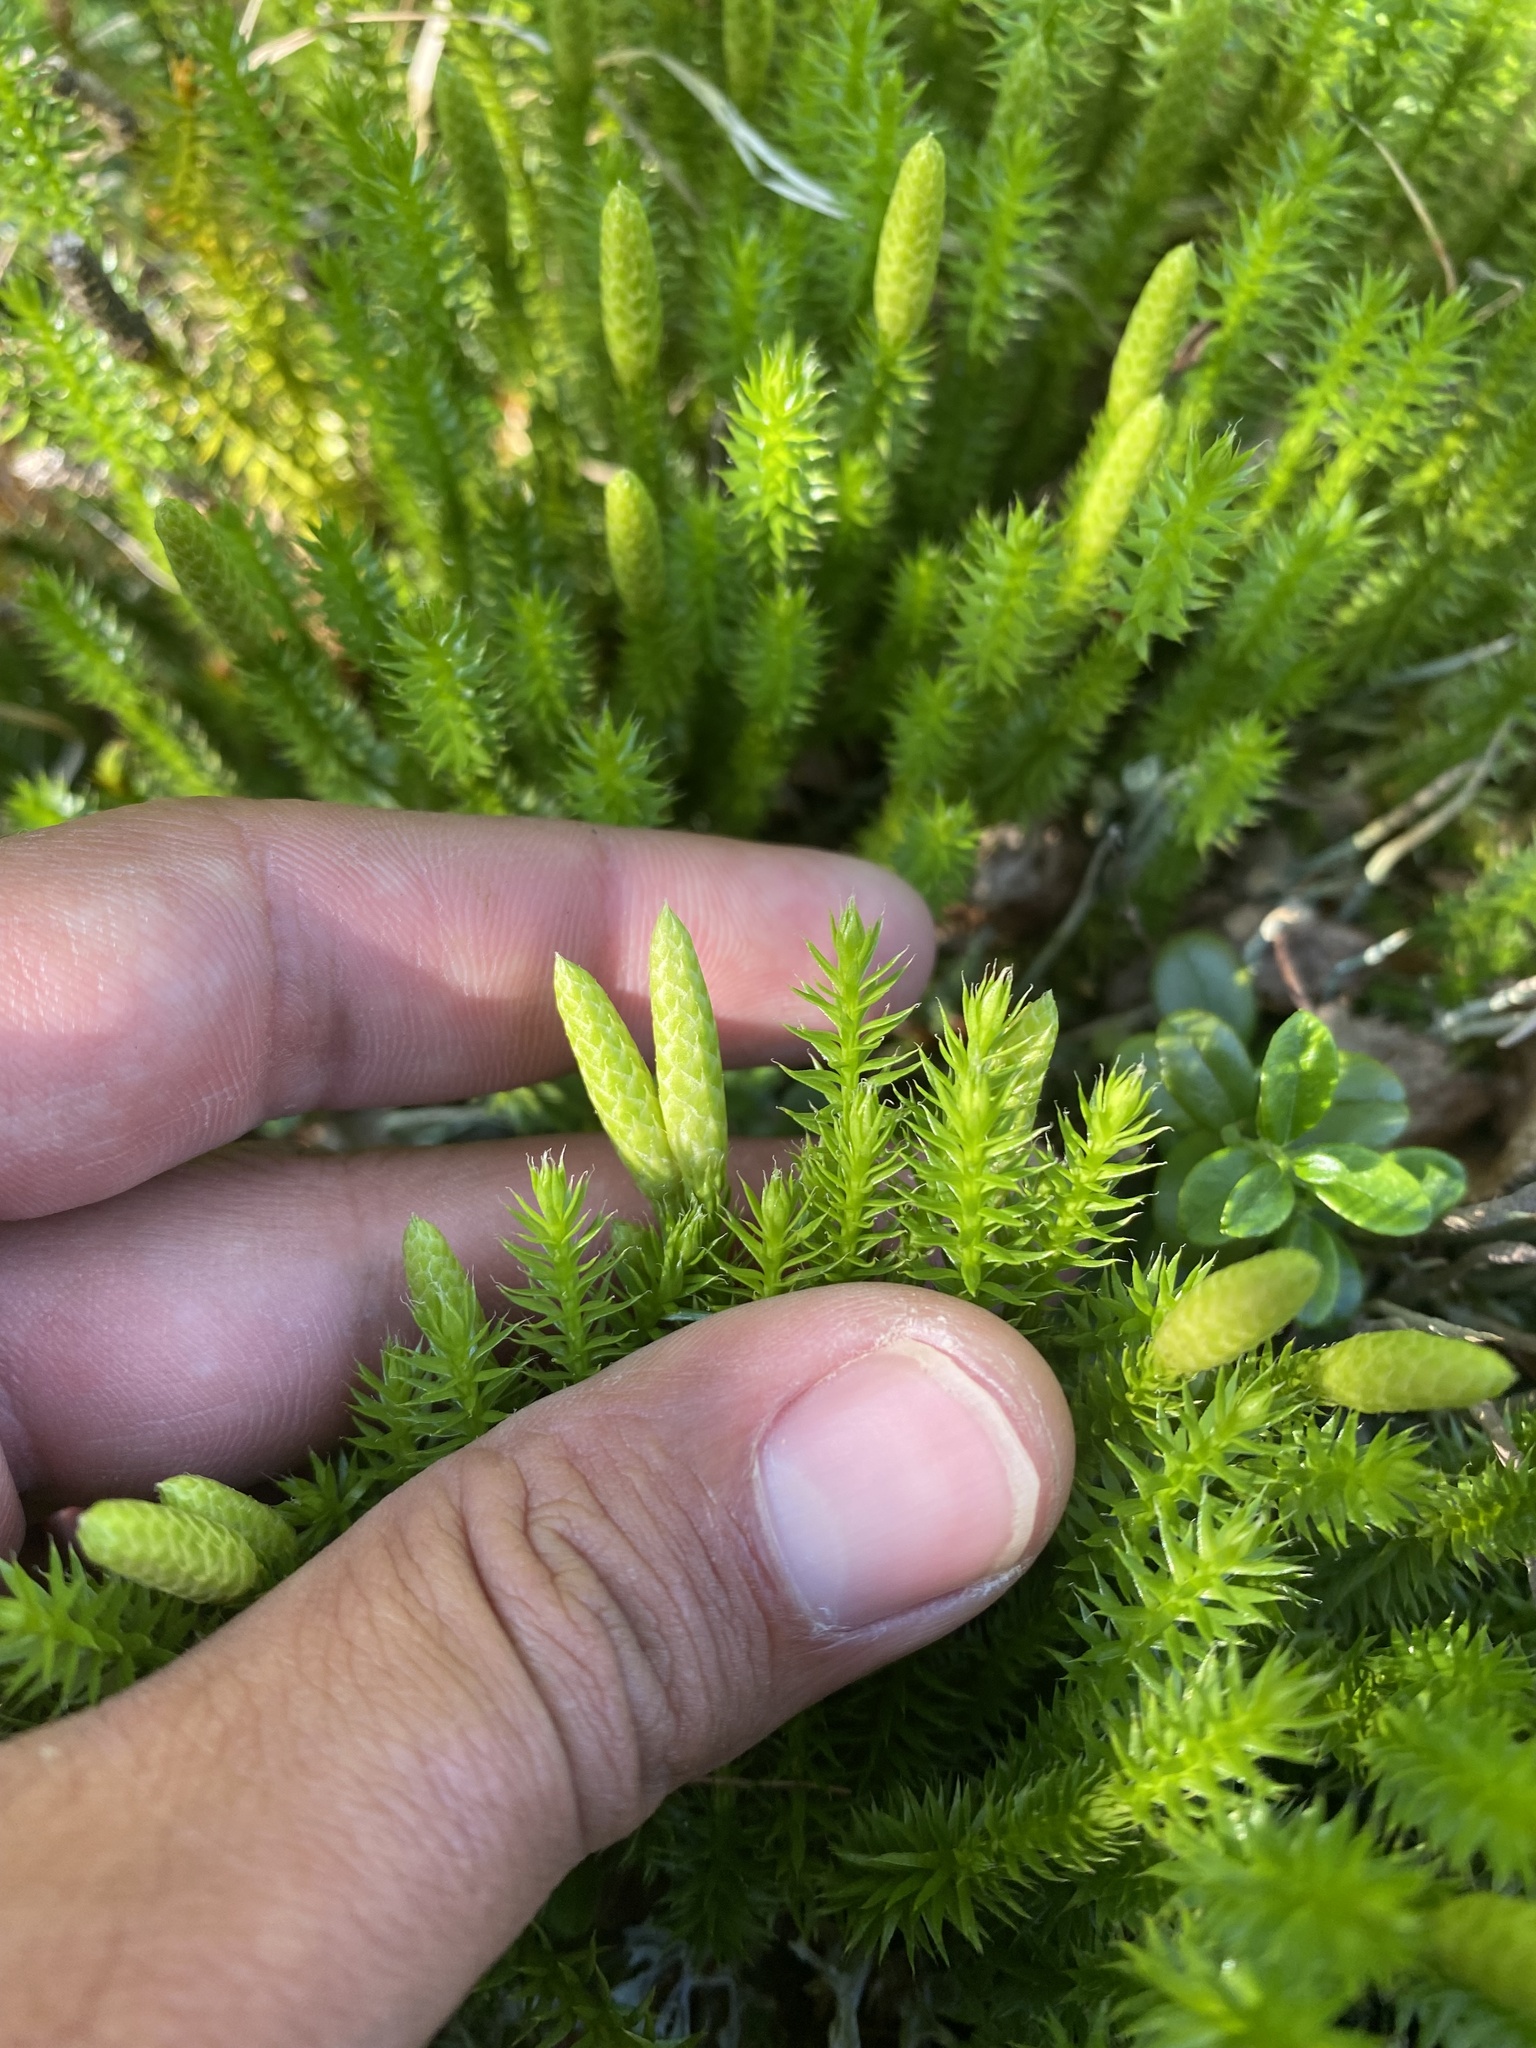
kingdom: Plantae
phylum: Tracheophyta
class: Lycopodiopsida
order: Lycopodiales
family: Lycopodiaceae
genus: Spinulum
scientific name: Spinulum annotinum
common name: Interrupted club-moss
